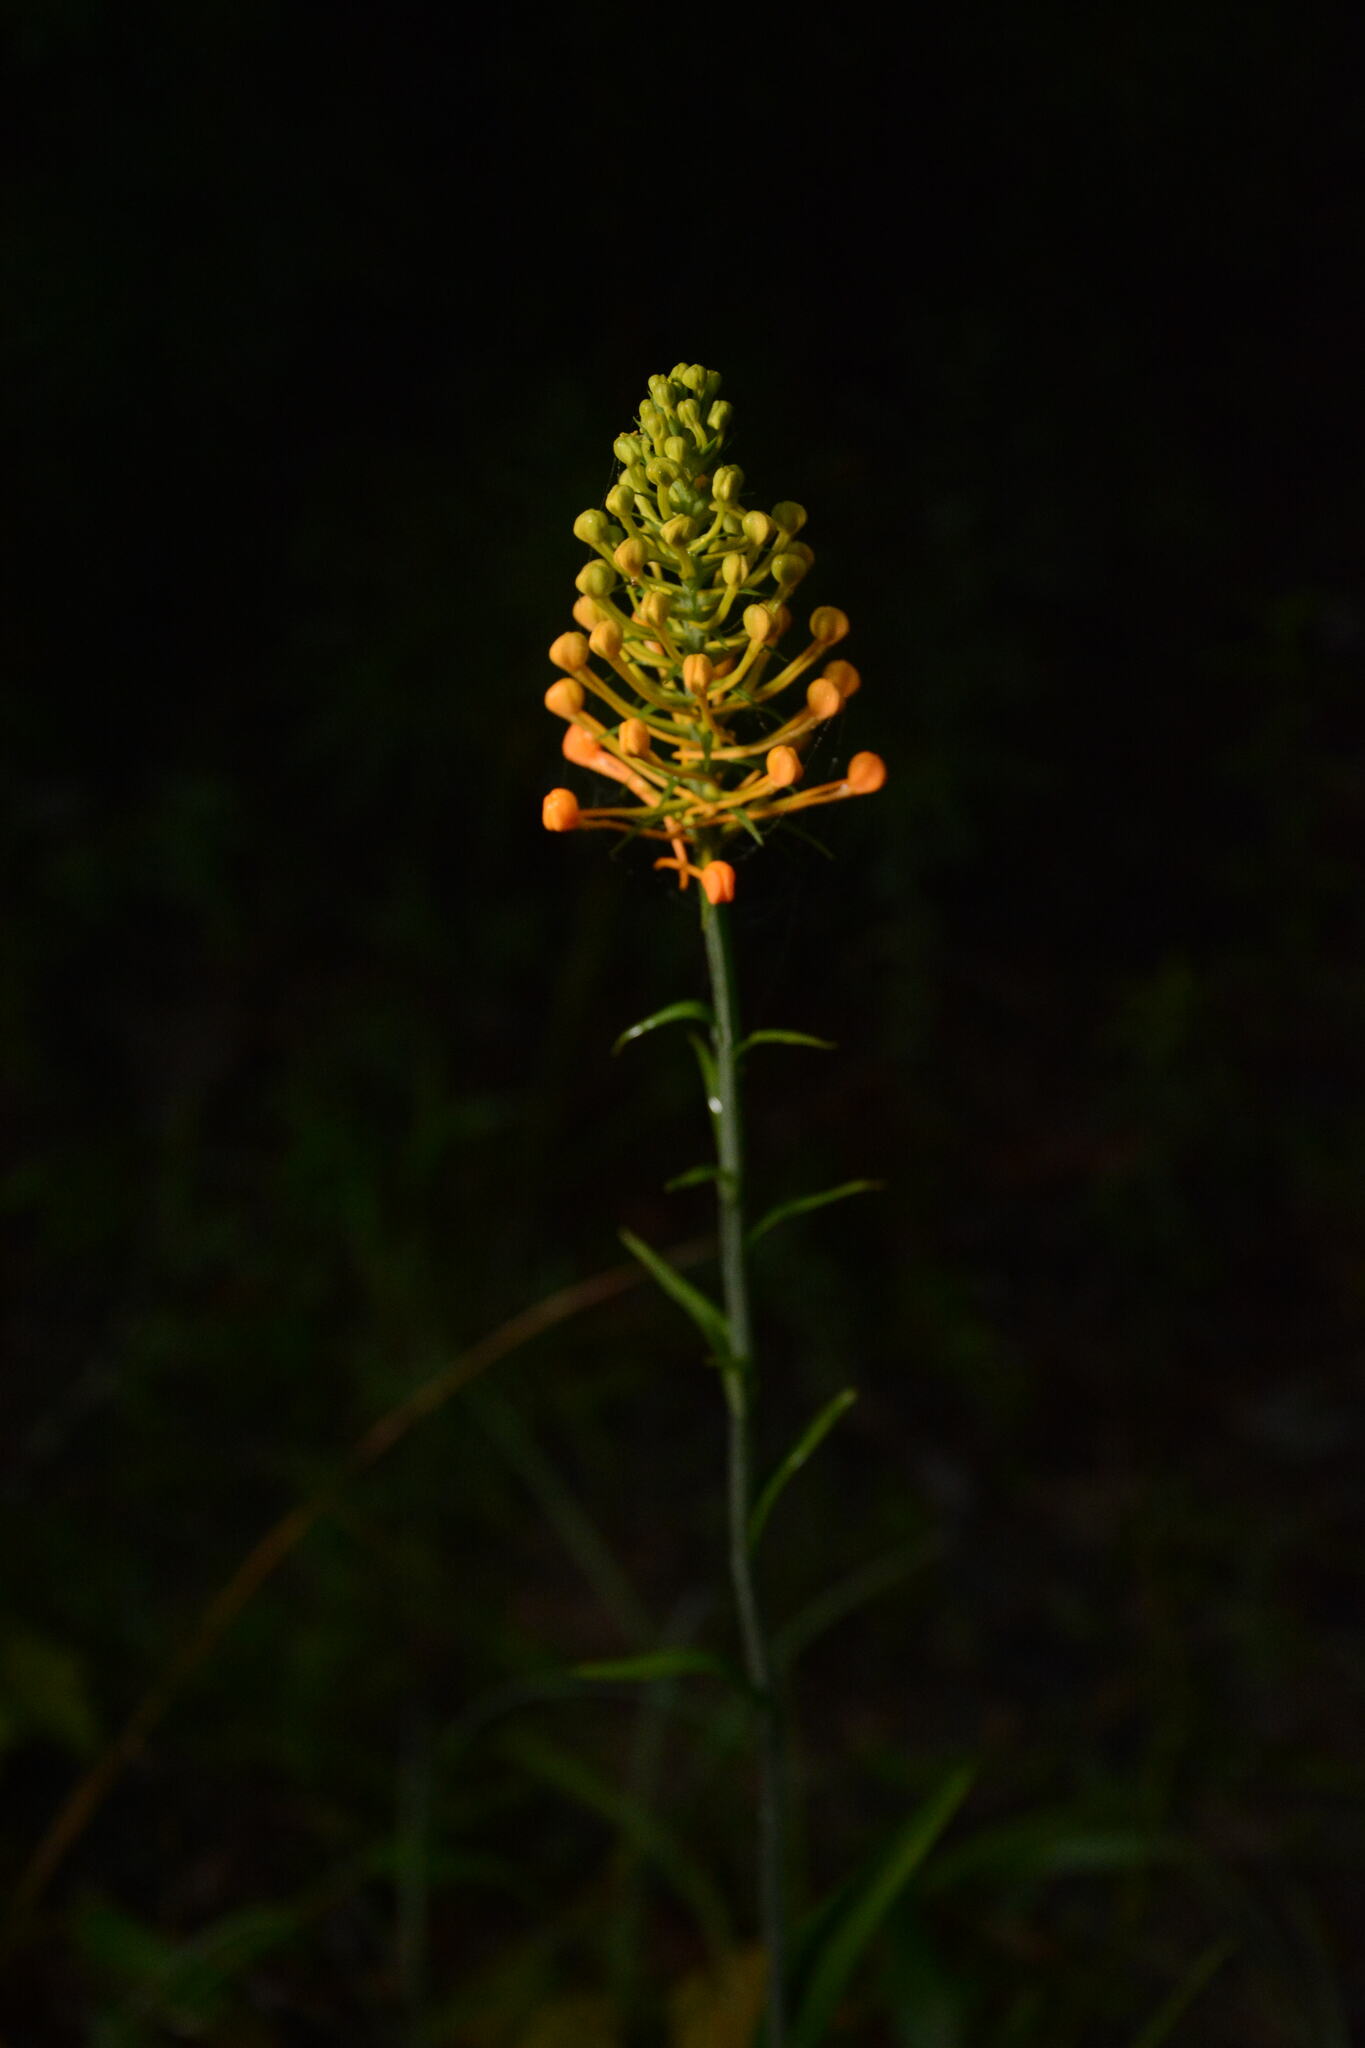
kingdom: Plantae
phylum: Tracheophyta
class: Liliopsida
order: Asparagales
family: Orchidaceae
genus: Platanthera
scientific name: Platanthera ciliaris
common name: Yellow fringed orchid
